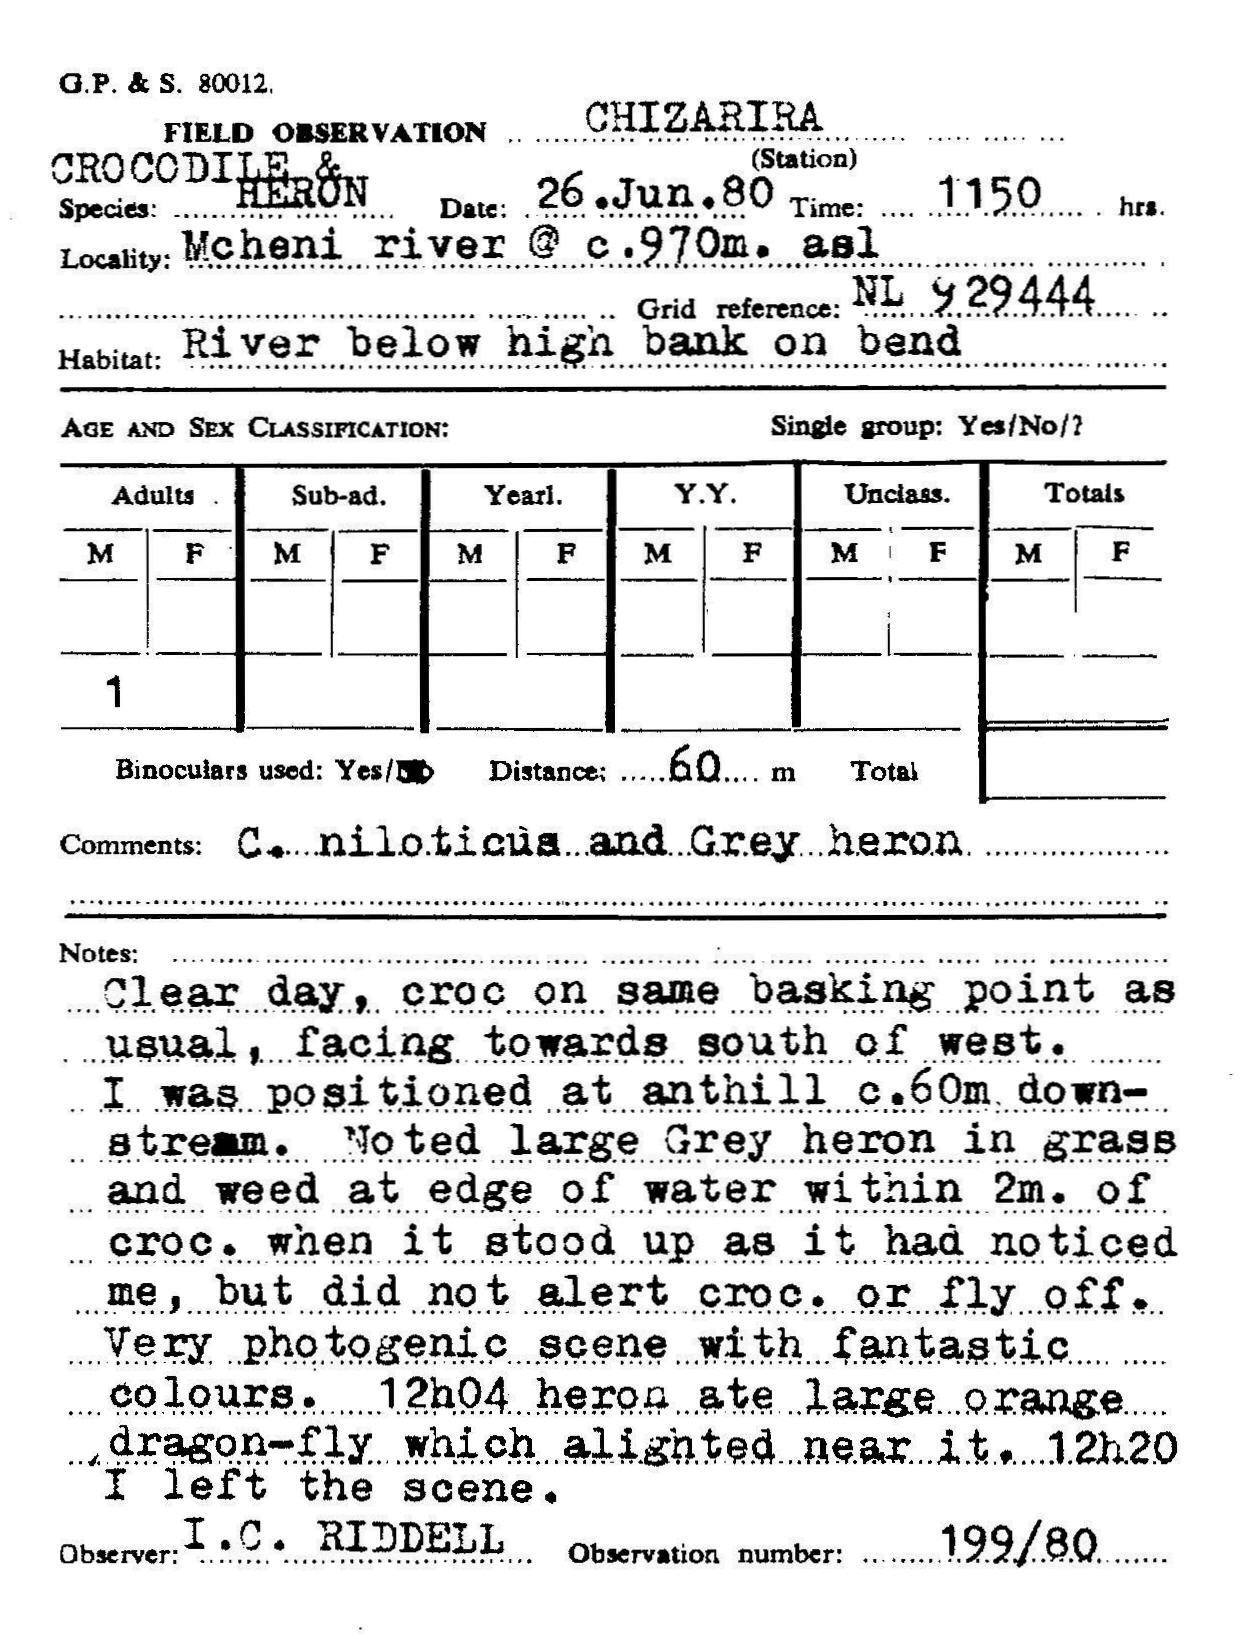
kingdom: Animalia
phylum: Chordata
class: Crocodylia
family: Crocodylidae
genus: Crocodylus
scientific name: Crocodylus niloticus
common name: Nile crocodile
